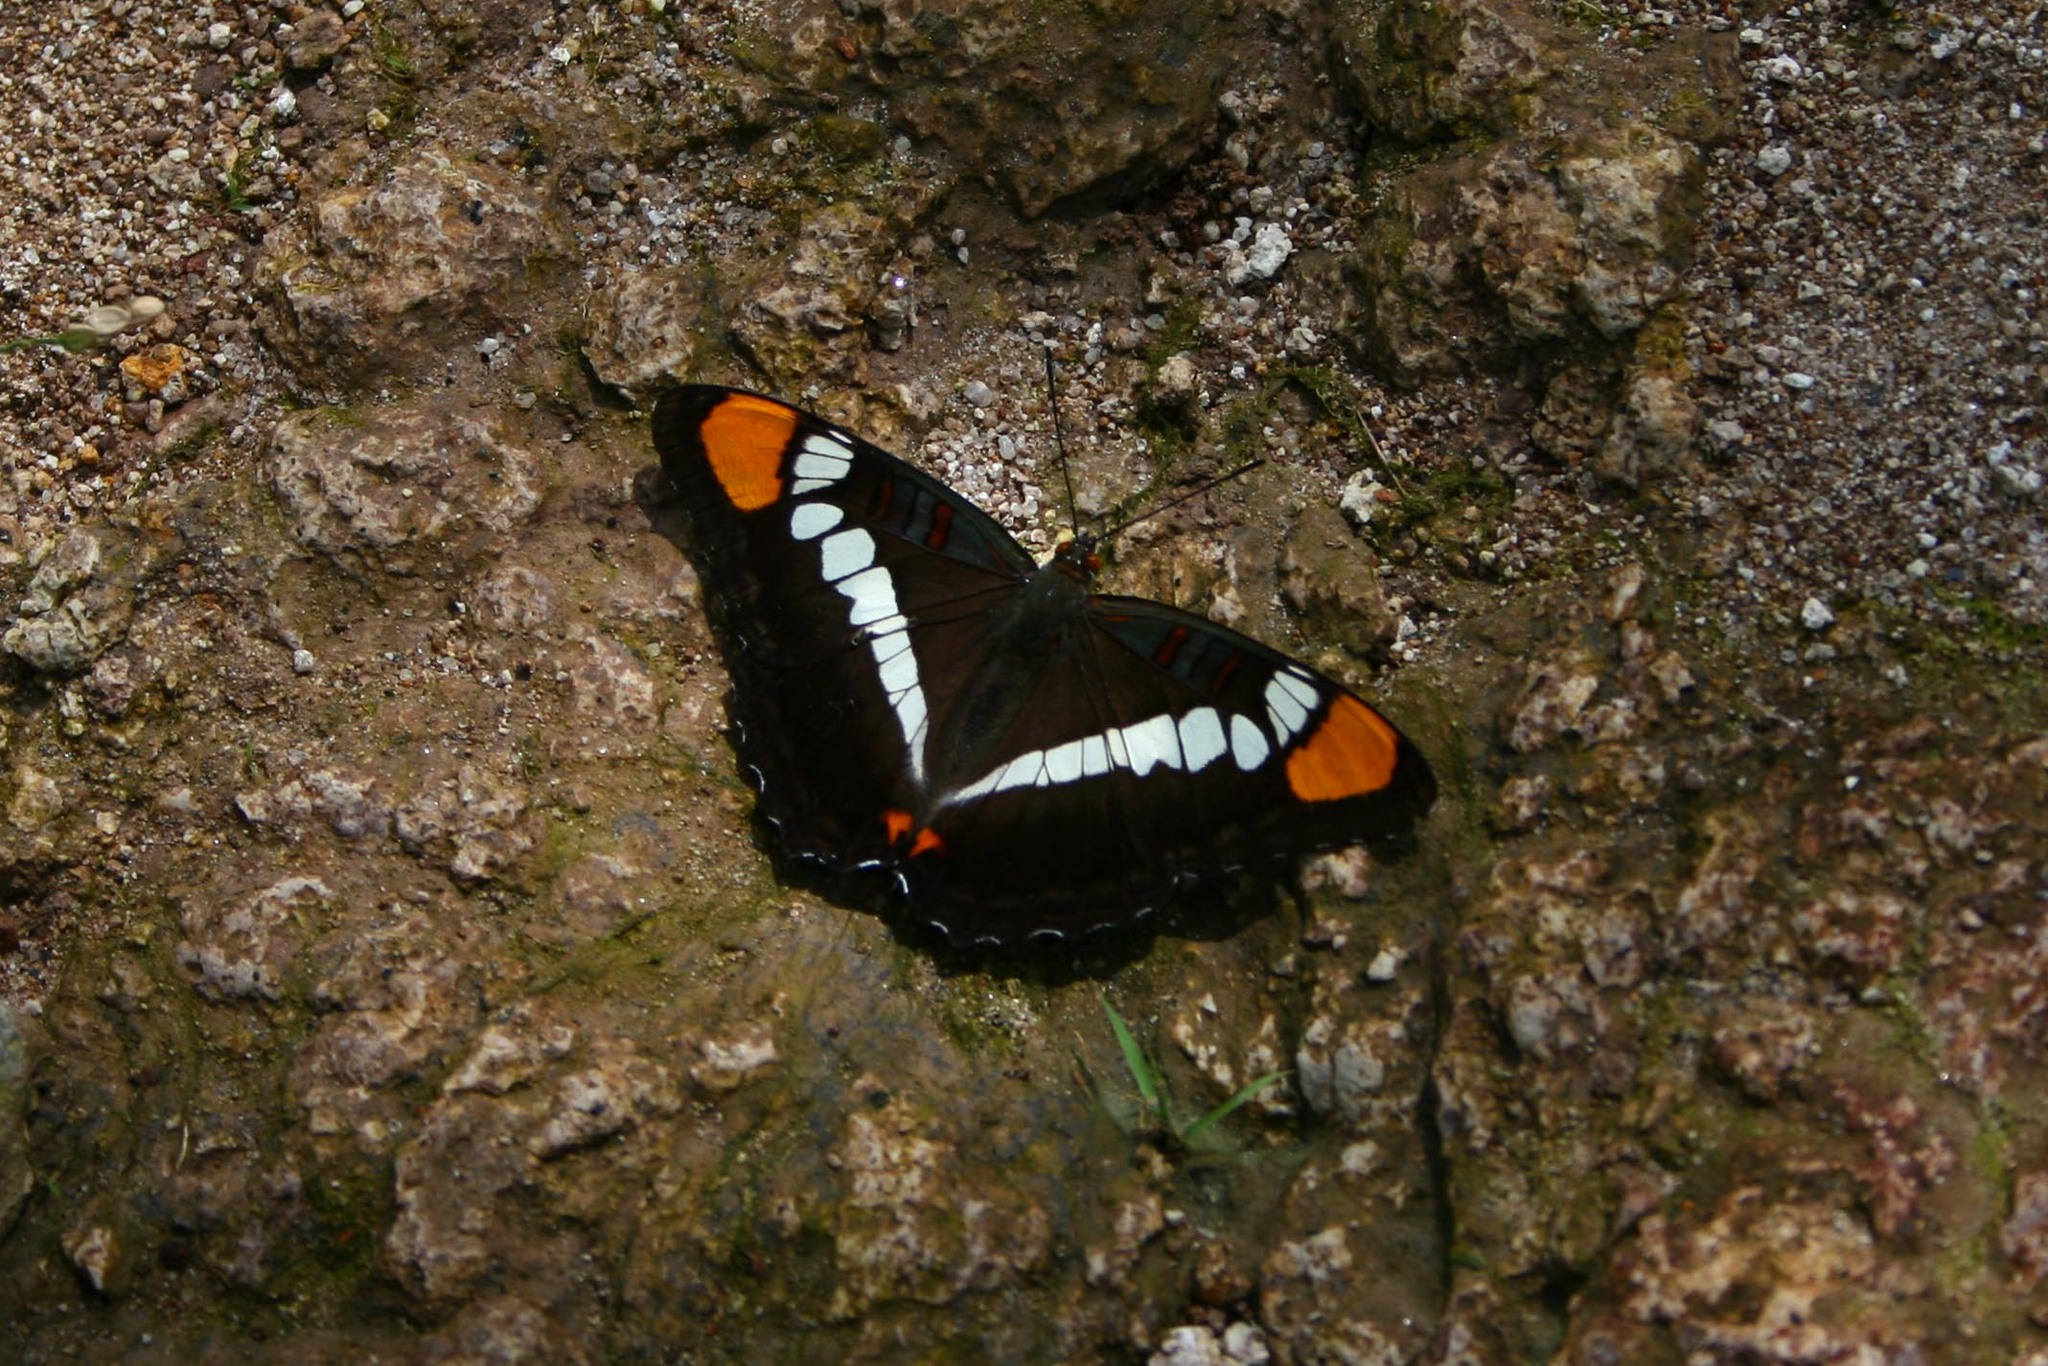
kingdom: Animalia
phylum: Arthropoda
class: Insecta
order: Lepidoptera
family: Nymphalidae
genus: Limenitis
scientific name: Limenitis bredowii
